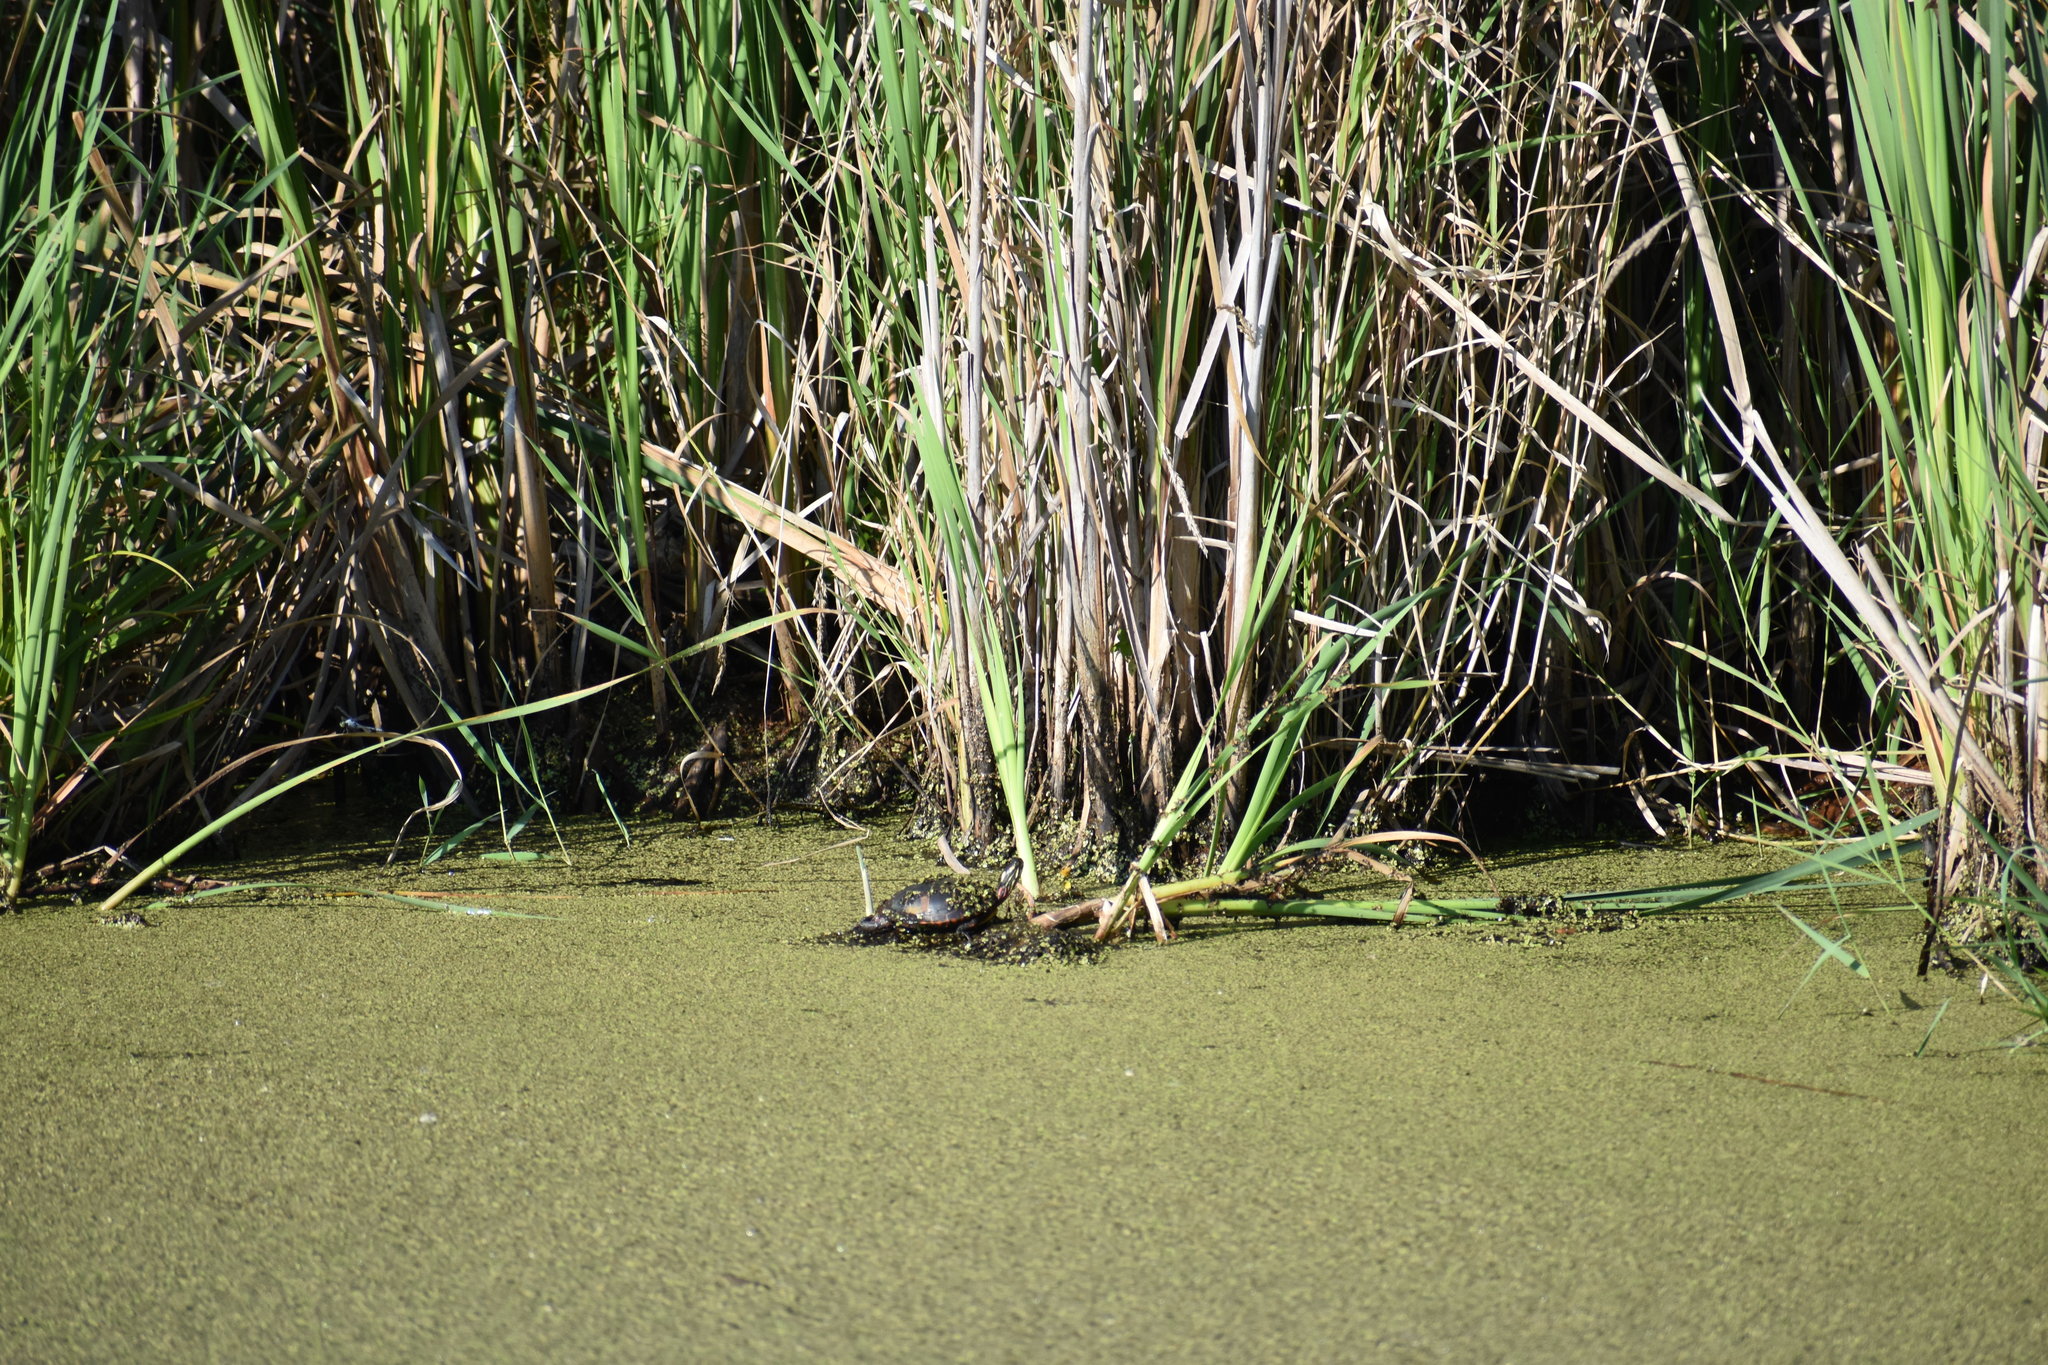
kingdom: Animalia
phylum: Chordata
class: Testudines
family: Emydidae
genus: Chrysemys
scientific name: Chrysemys picta
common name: Painted turtle
